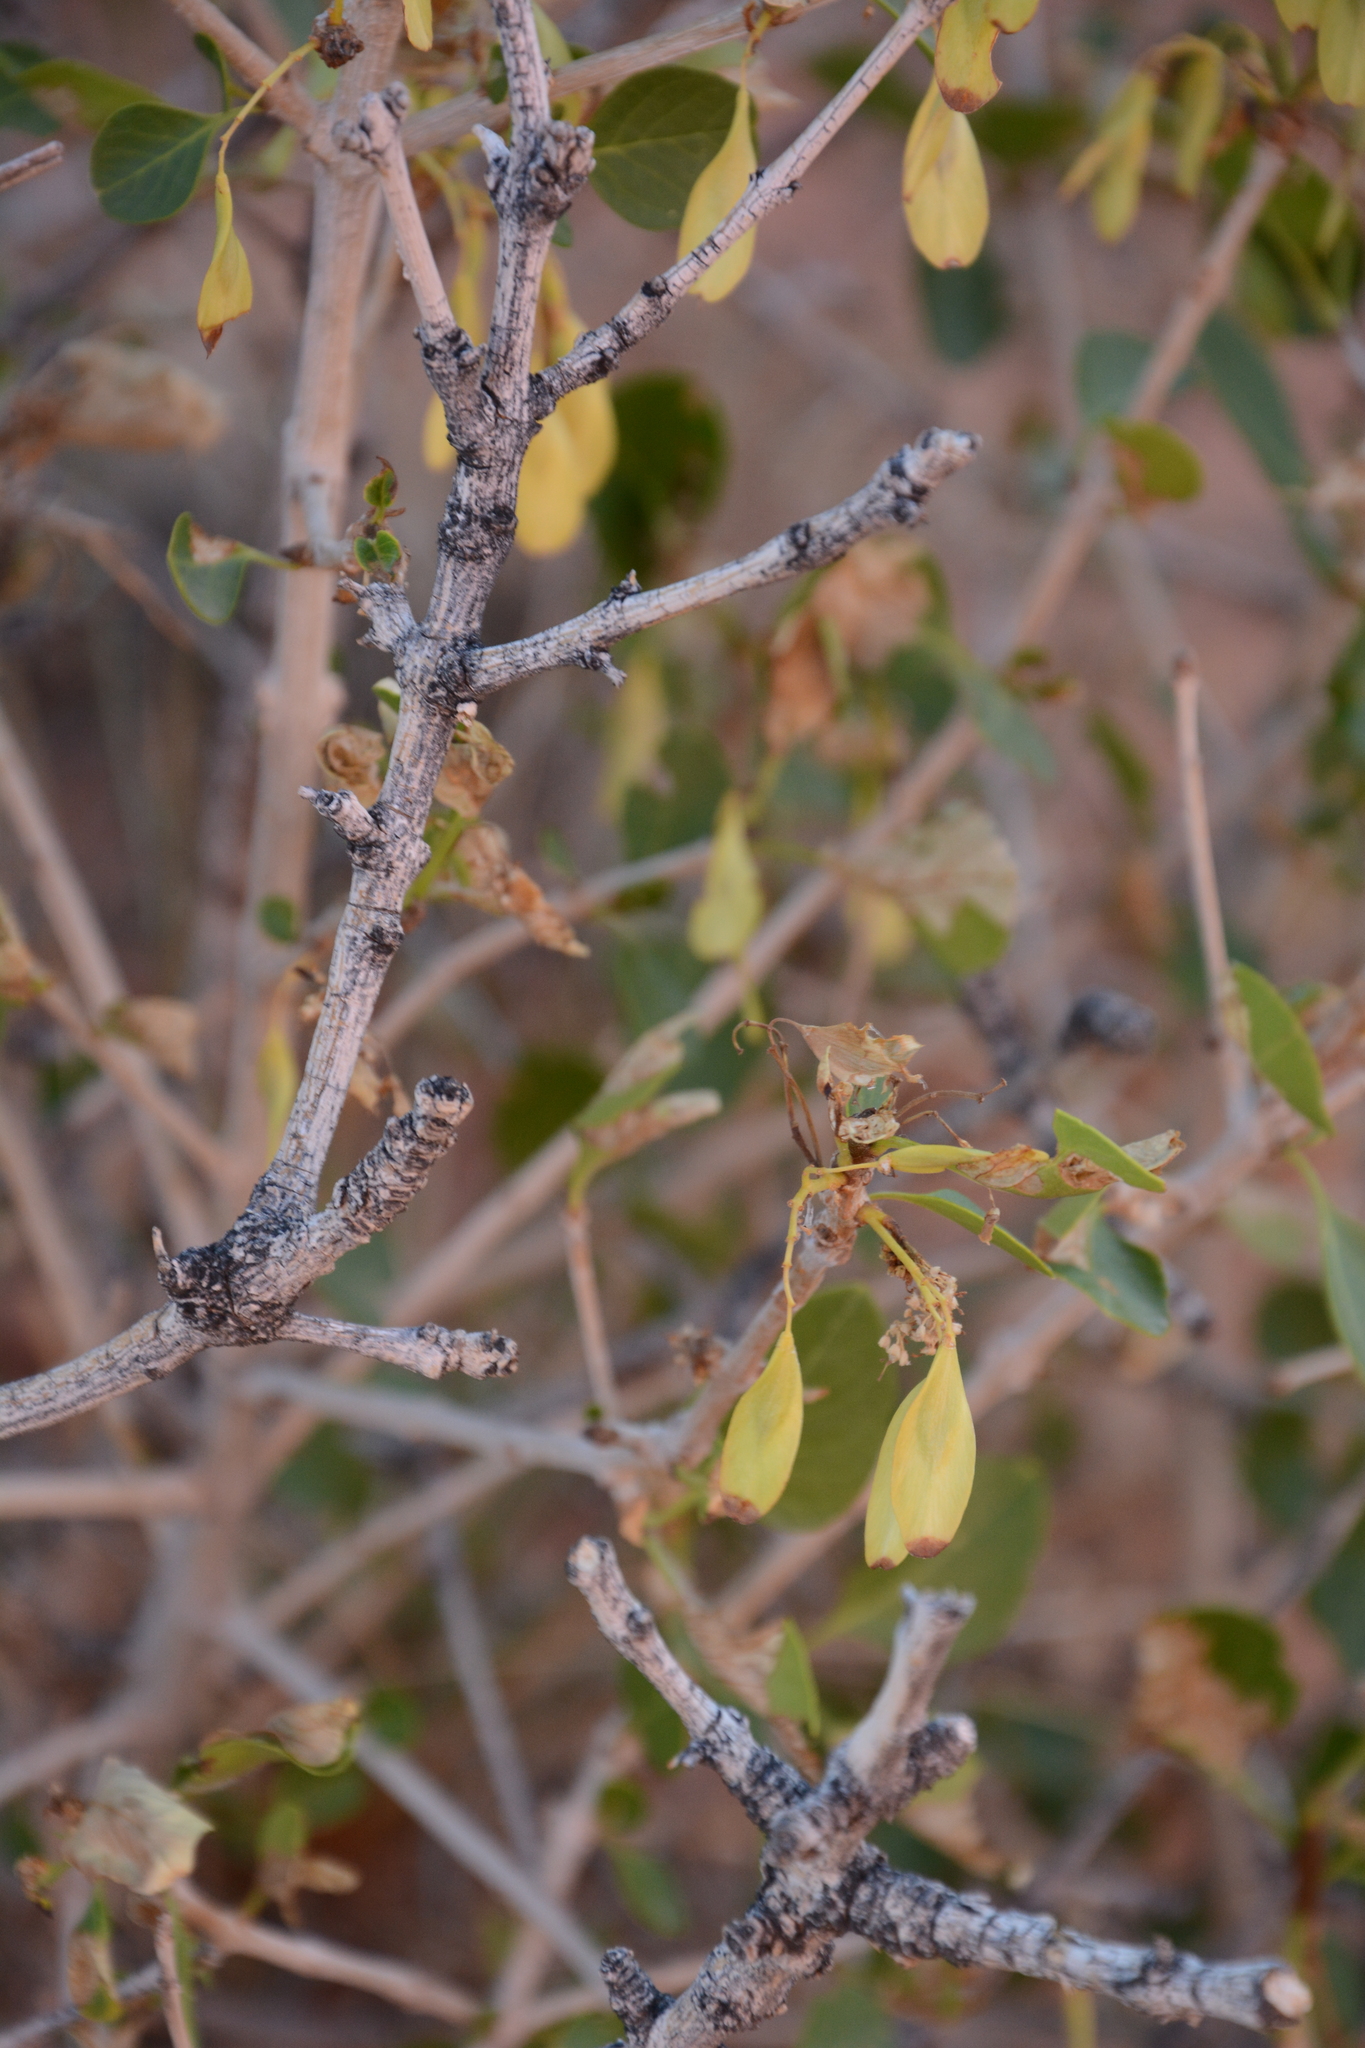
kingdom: Plantae
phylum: Tracheophyta
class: Magnoliopsida
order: Lamiales
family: Oleaceae
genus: Fraxinus
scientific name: Fraxinus anomala
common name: Utah ash
